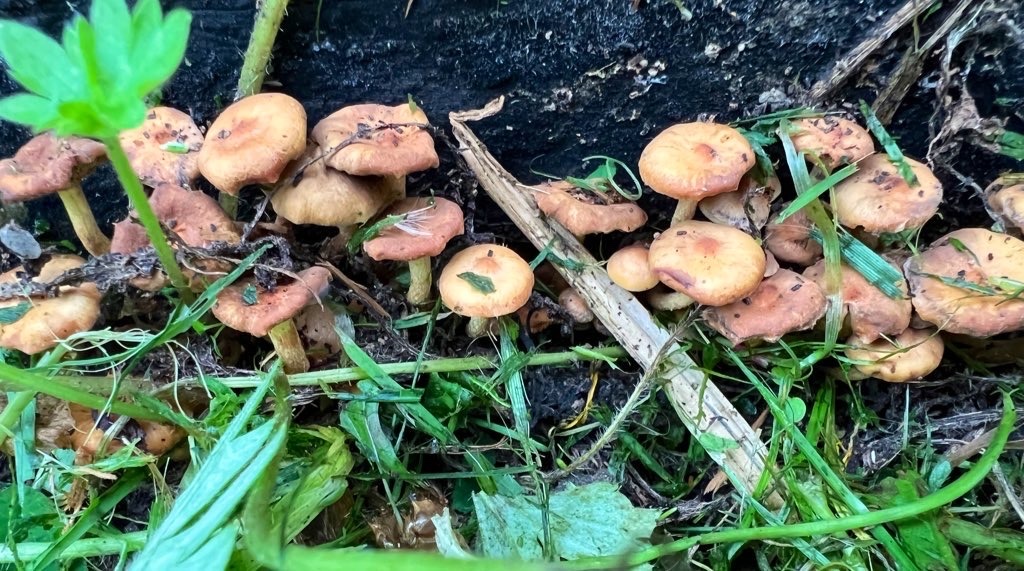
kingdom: Fungi
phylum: Basidiomycota
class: Agaricomycetes
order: Agaricales
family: Strophariaceae
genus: Hypholoma
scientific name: Hypholoma acutum
